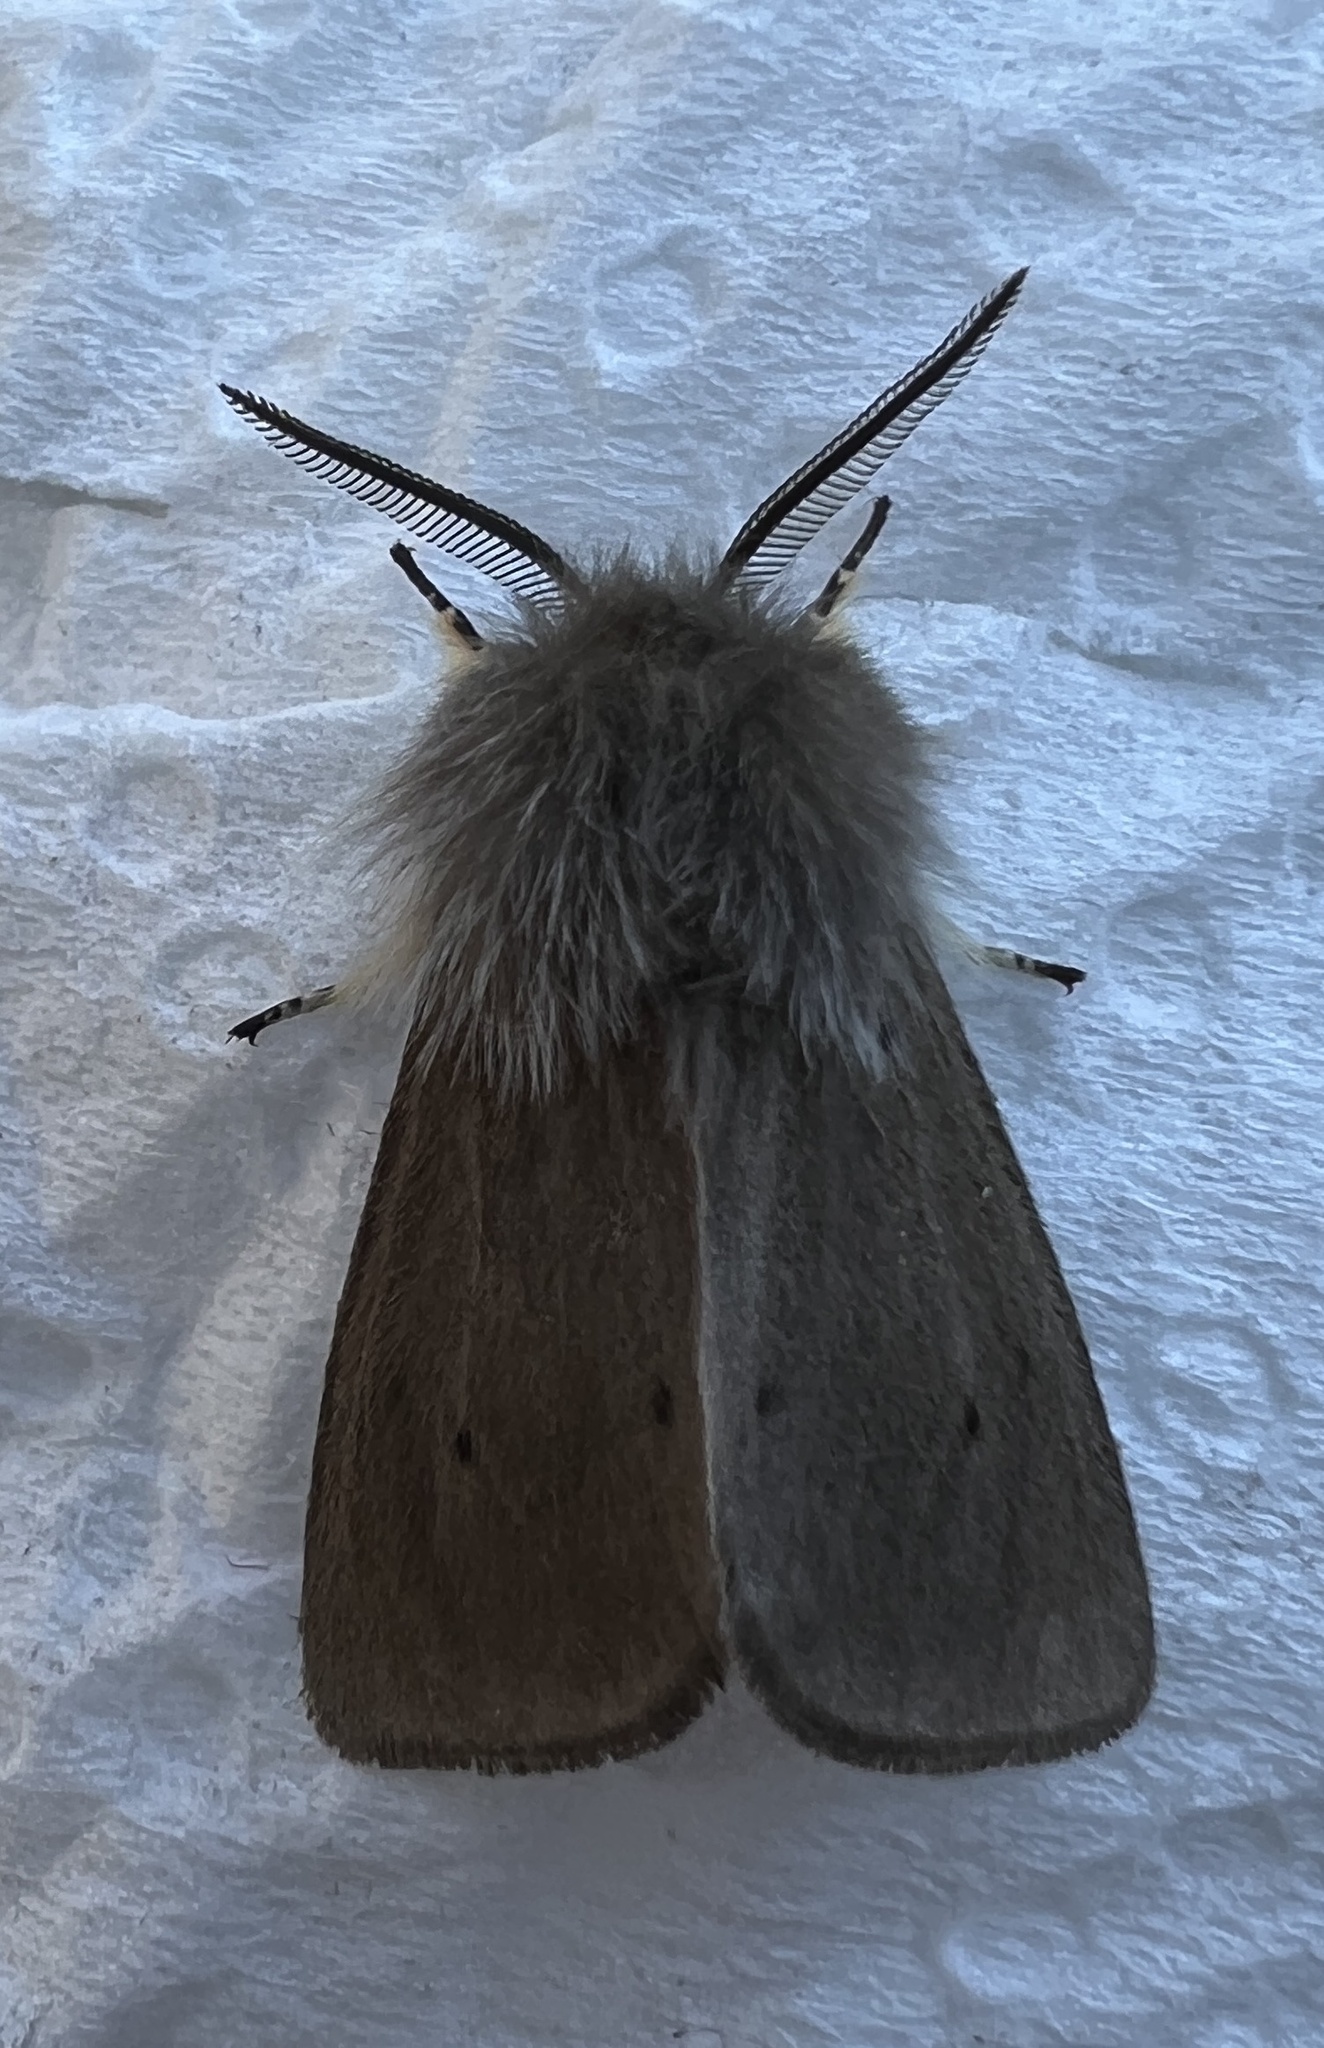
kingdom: Animalia
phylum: Arthropoda
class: Insecta
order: Lepidoptera
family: Erebidae
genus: Diaphora
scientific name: Diaphora mendica
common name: Muslin moth
